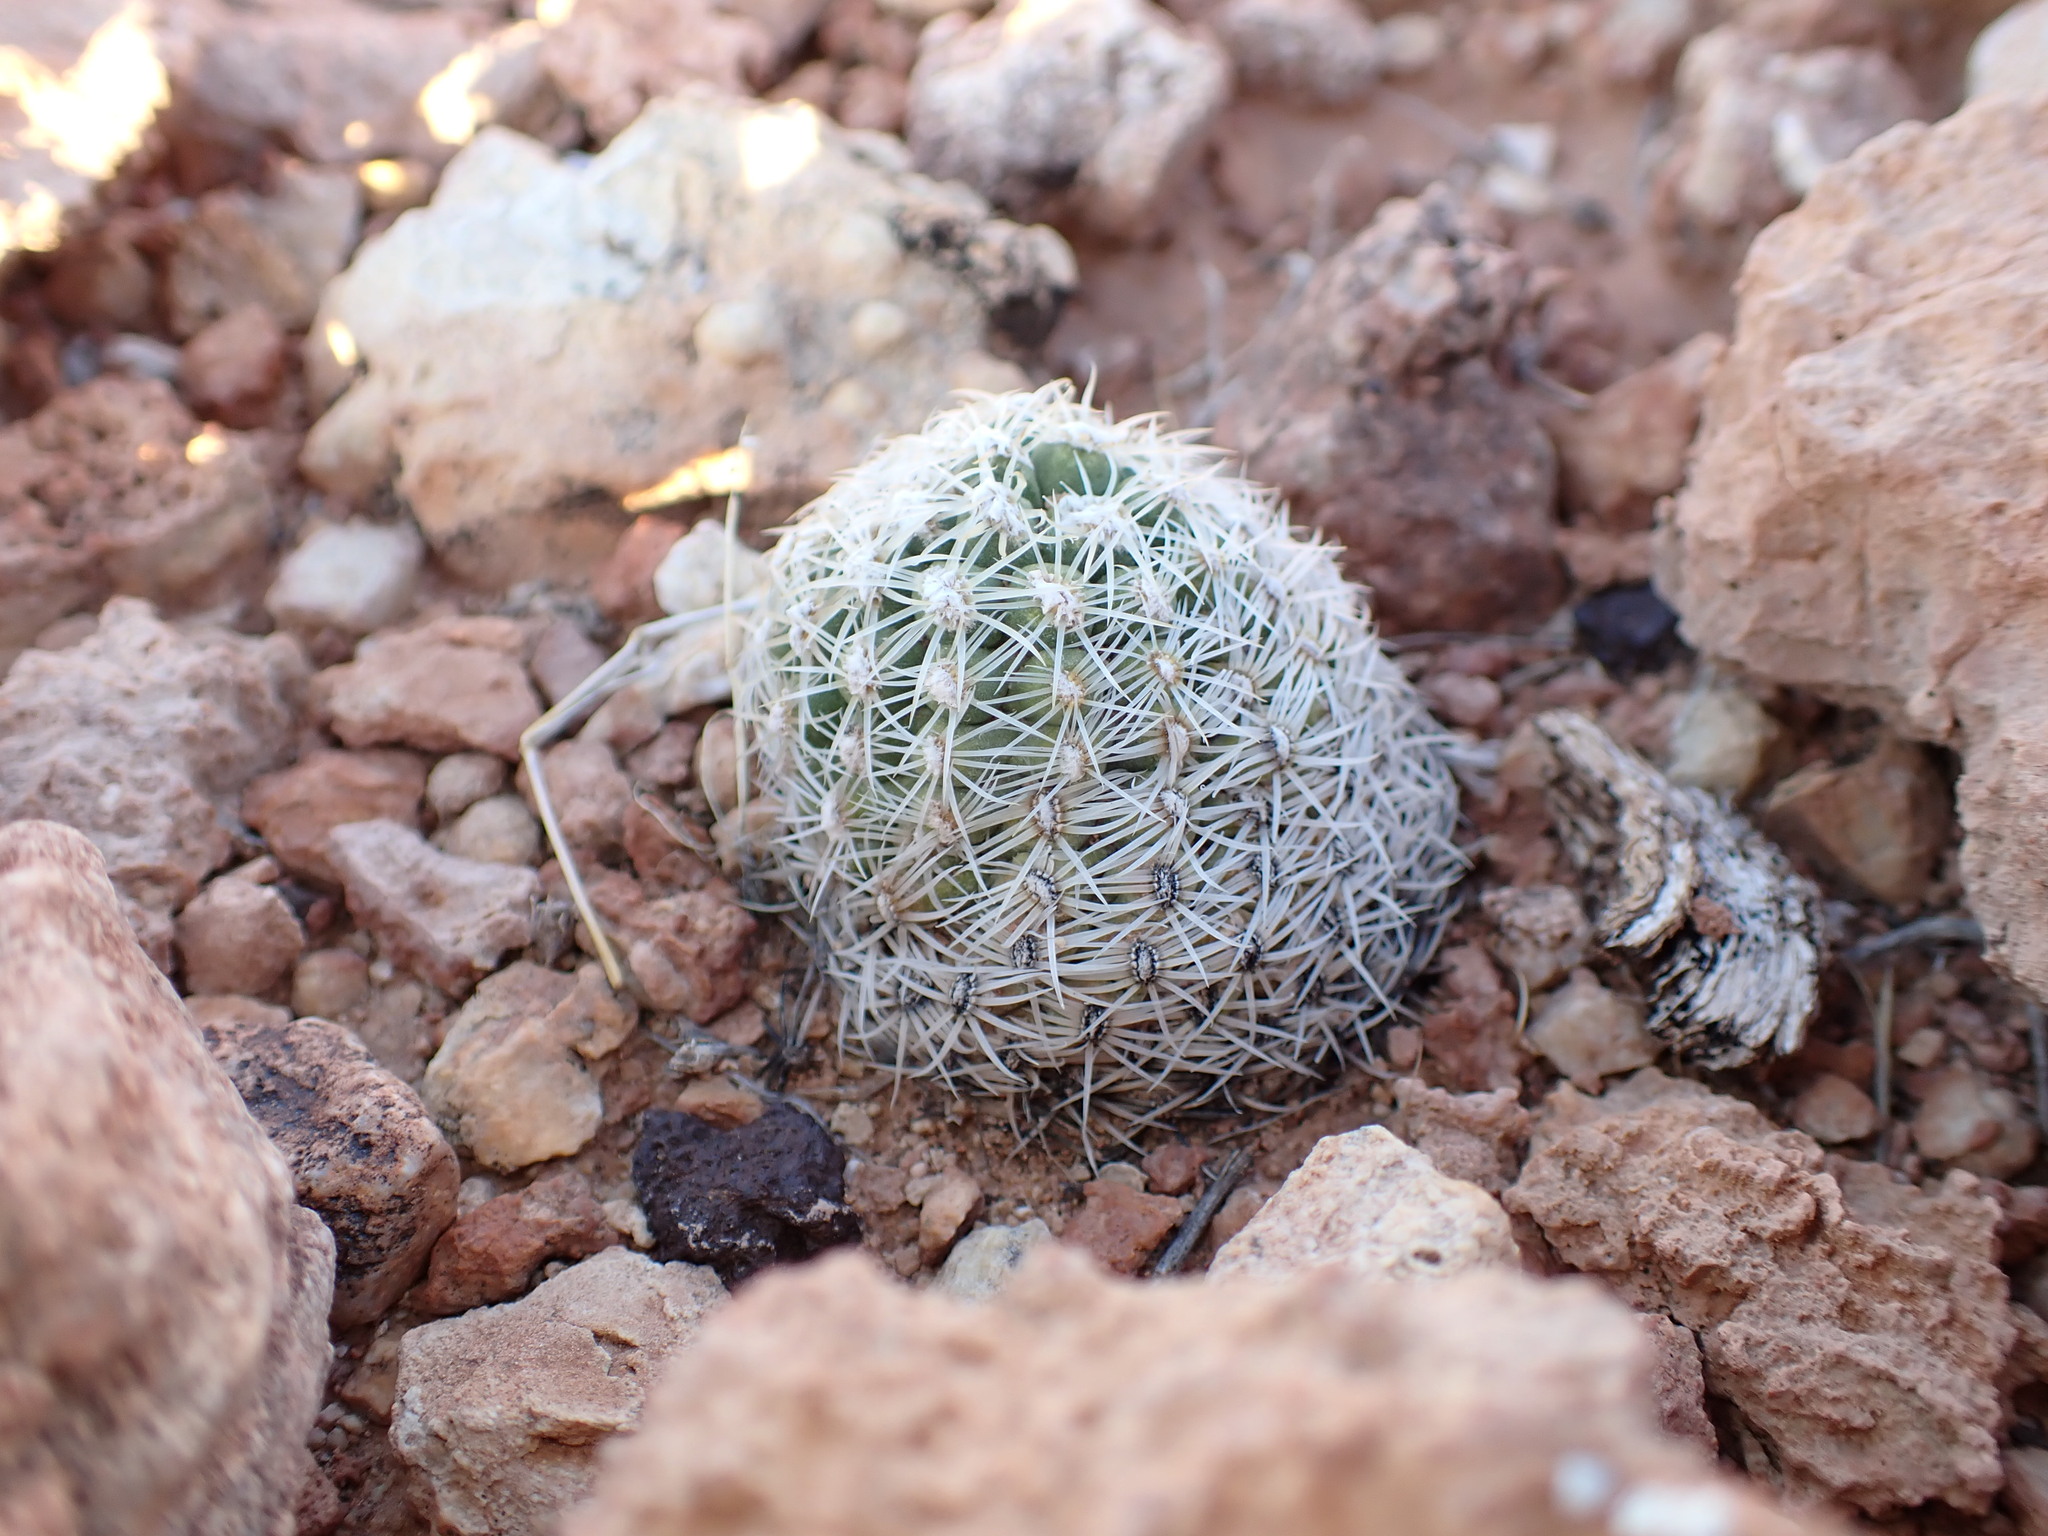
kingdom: Plantae
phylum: Tracheophyta
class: Magnoliopsida
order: Caryophyllales
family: Cactaceae
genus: Pediocactus
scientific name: Pediocactus bradyi
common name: Brady's hedgehog cactus
